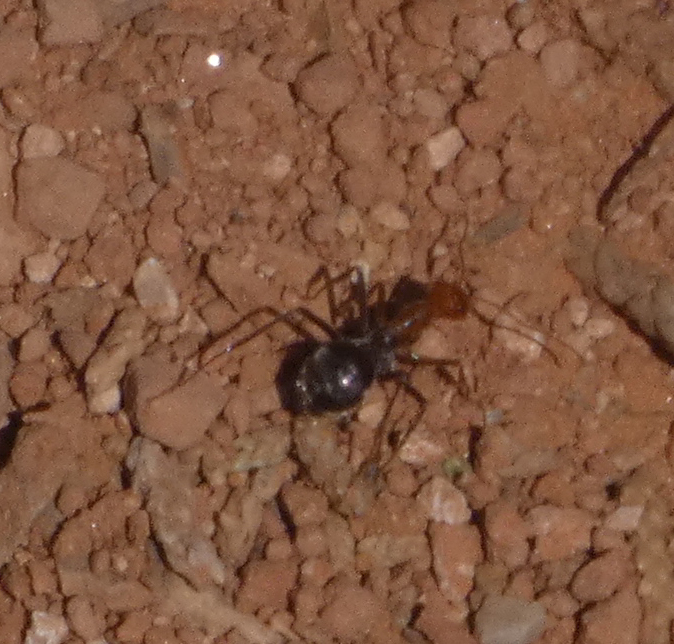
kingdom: Animalia
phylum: Arthropoda
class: Insecta
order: Hymenoptera
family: Formicidae
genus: Endiodioctes
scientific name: Endiodioctes
